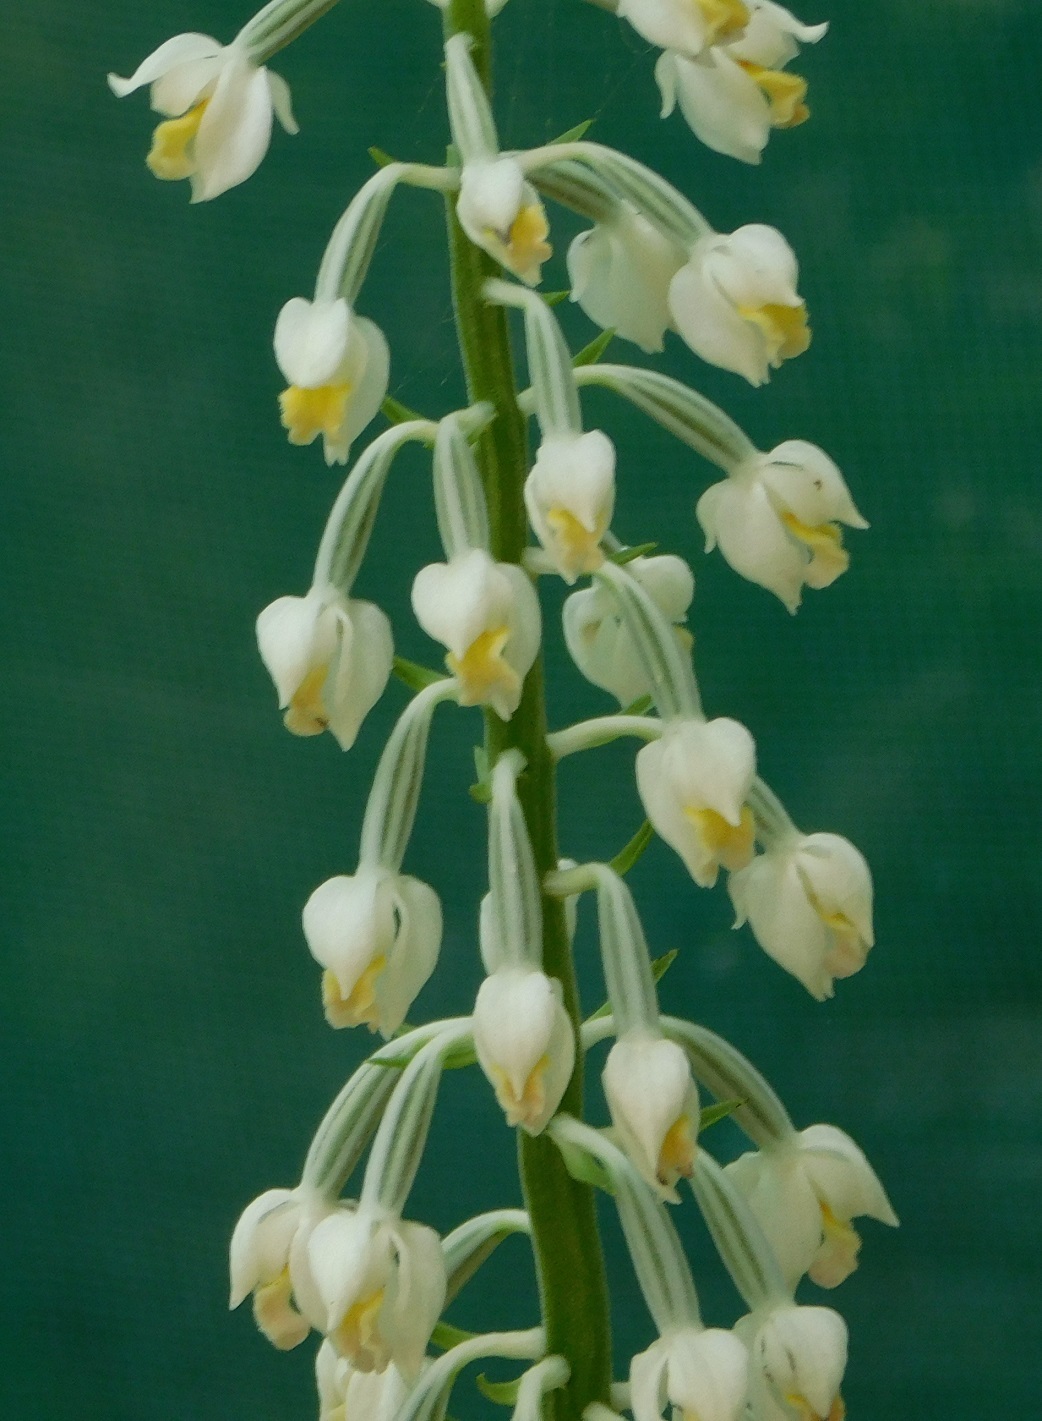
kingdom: Plantae
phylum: Tracheophyta
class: Liliopsida
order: Asparagales
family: Orchidaceae
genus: Calanthe
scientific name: Calanthe calanthoides
